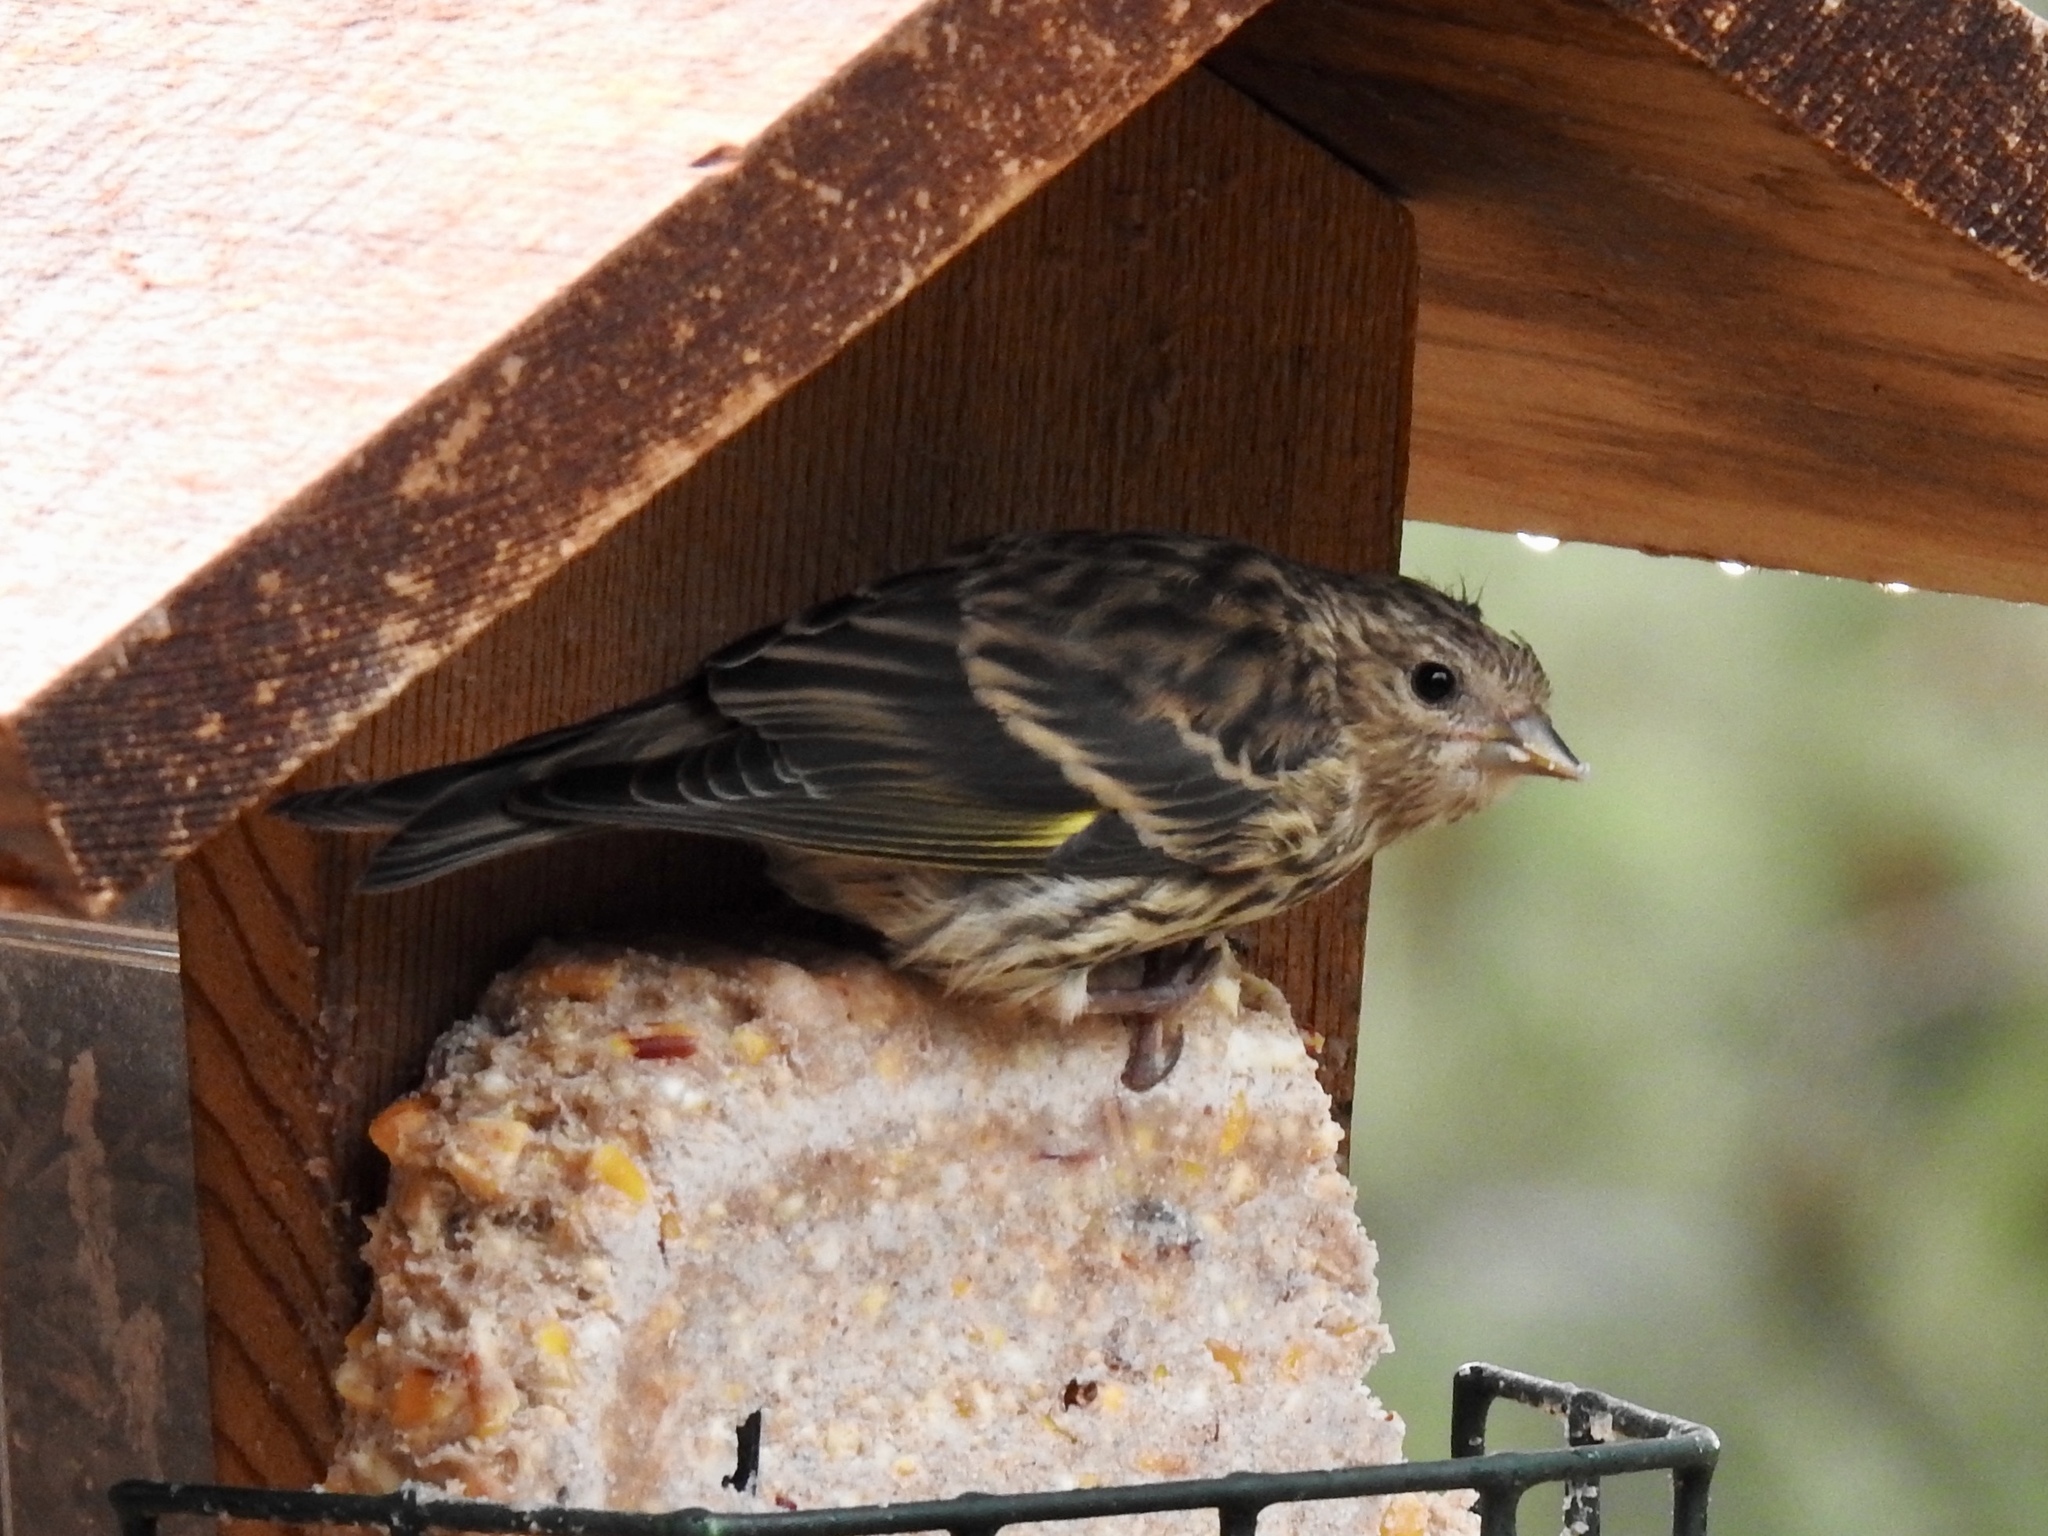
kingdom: Animalia
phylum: Chordata
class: Aves
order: Passeriformes
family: Fringillidae
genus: Spinus
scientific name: Spinus pinus
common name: Pine siskin
